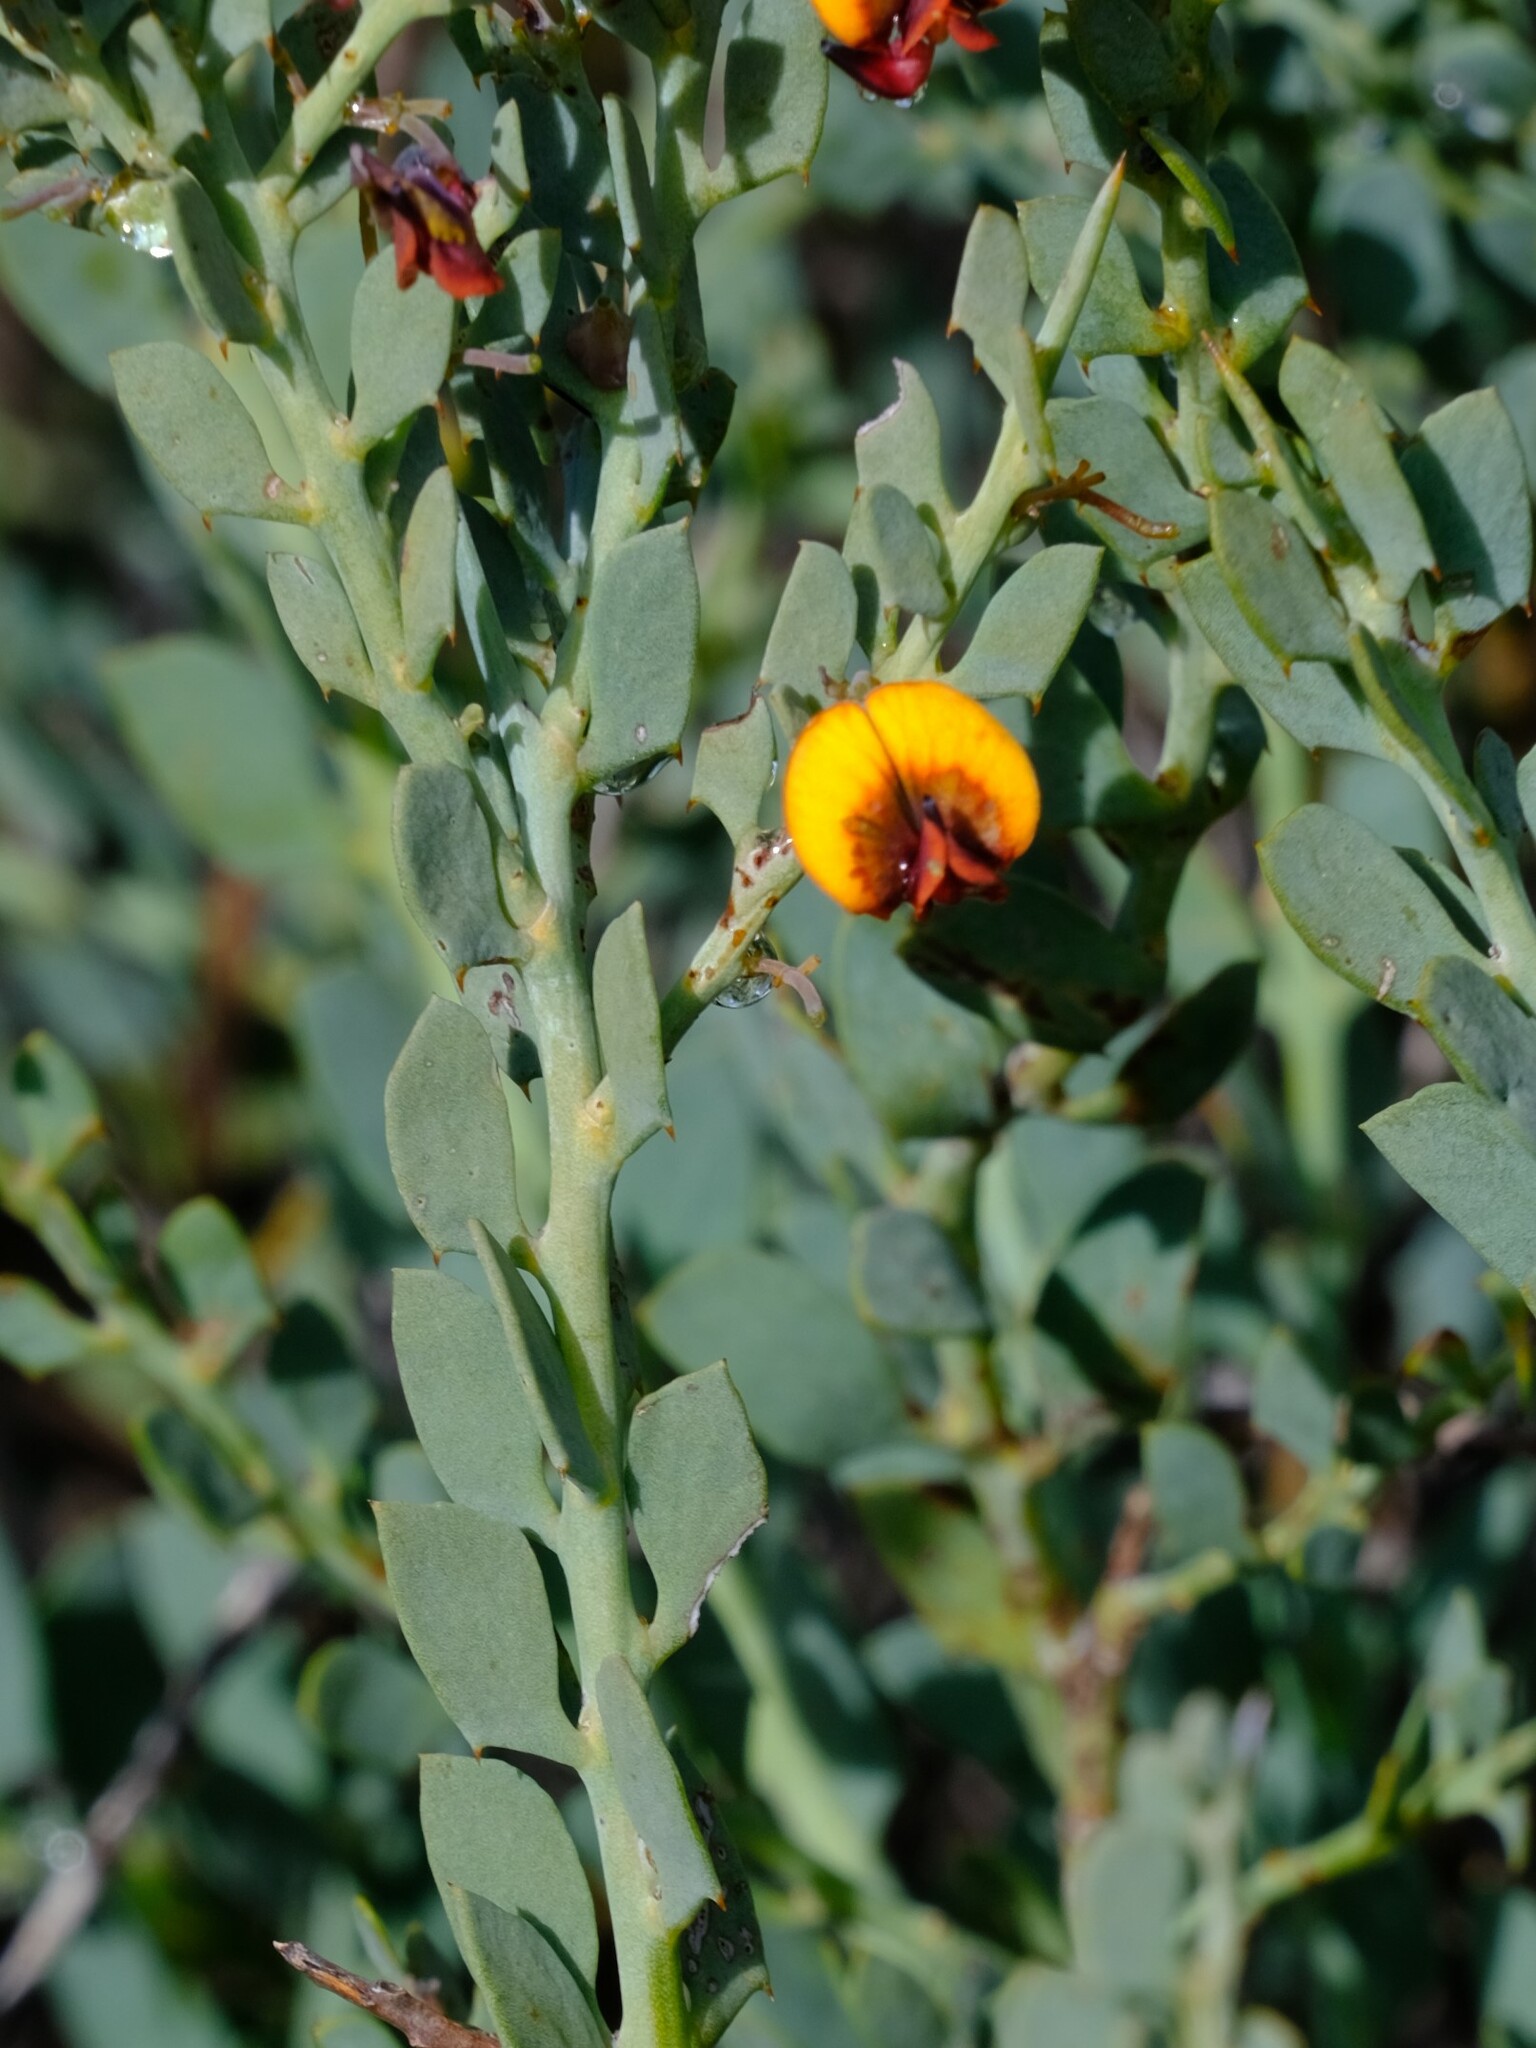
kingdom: Plantae
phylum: Tracheophyta
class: Magnoliopsida
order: Fabales
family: Fabaceae
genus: Daviesia
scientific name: Daviesia podophylla
